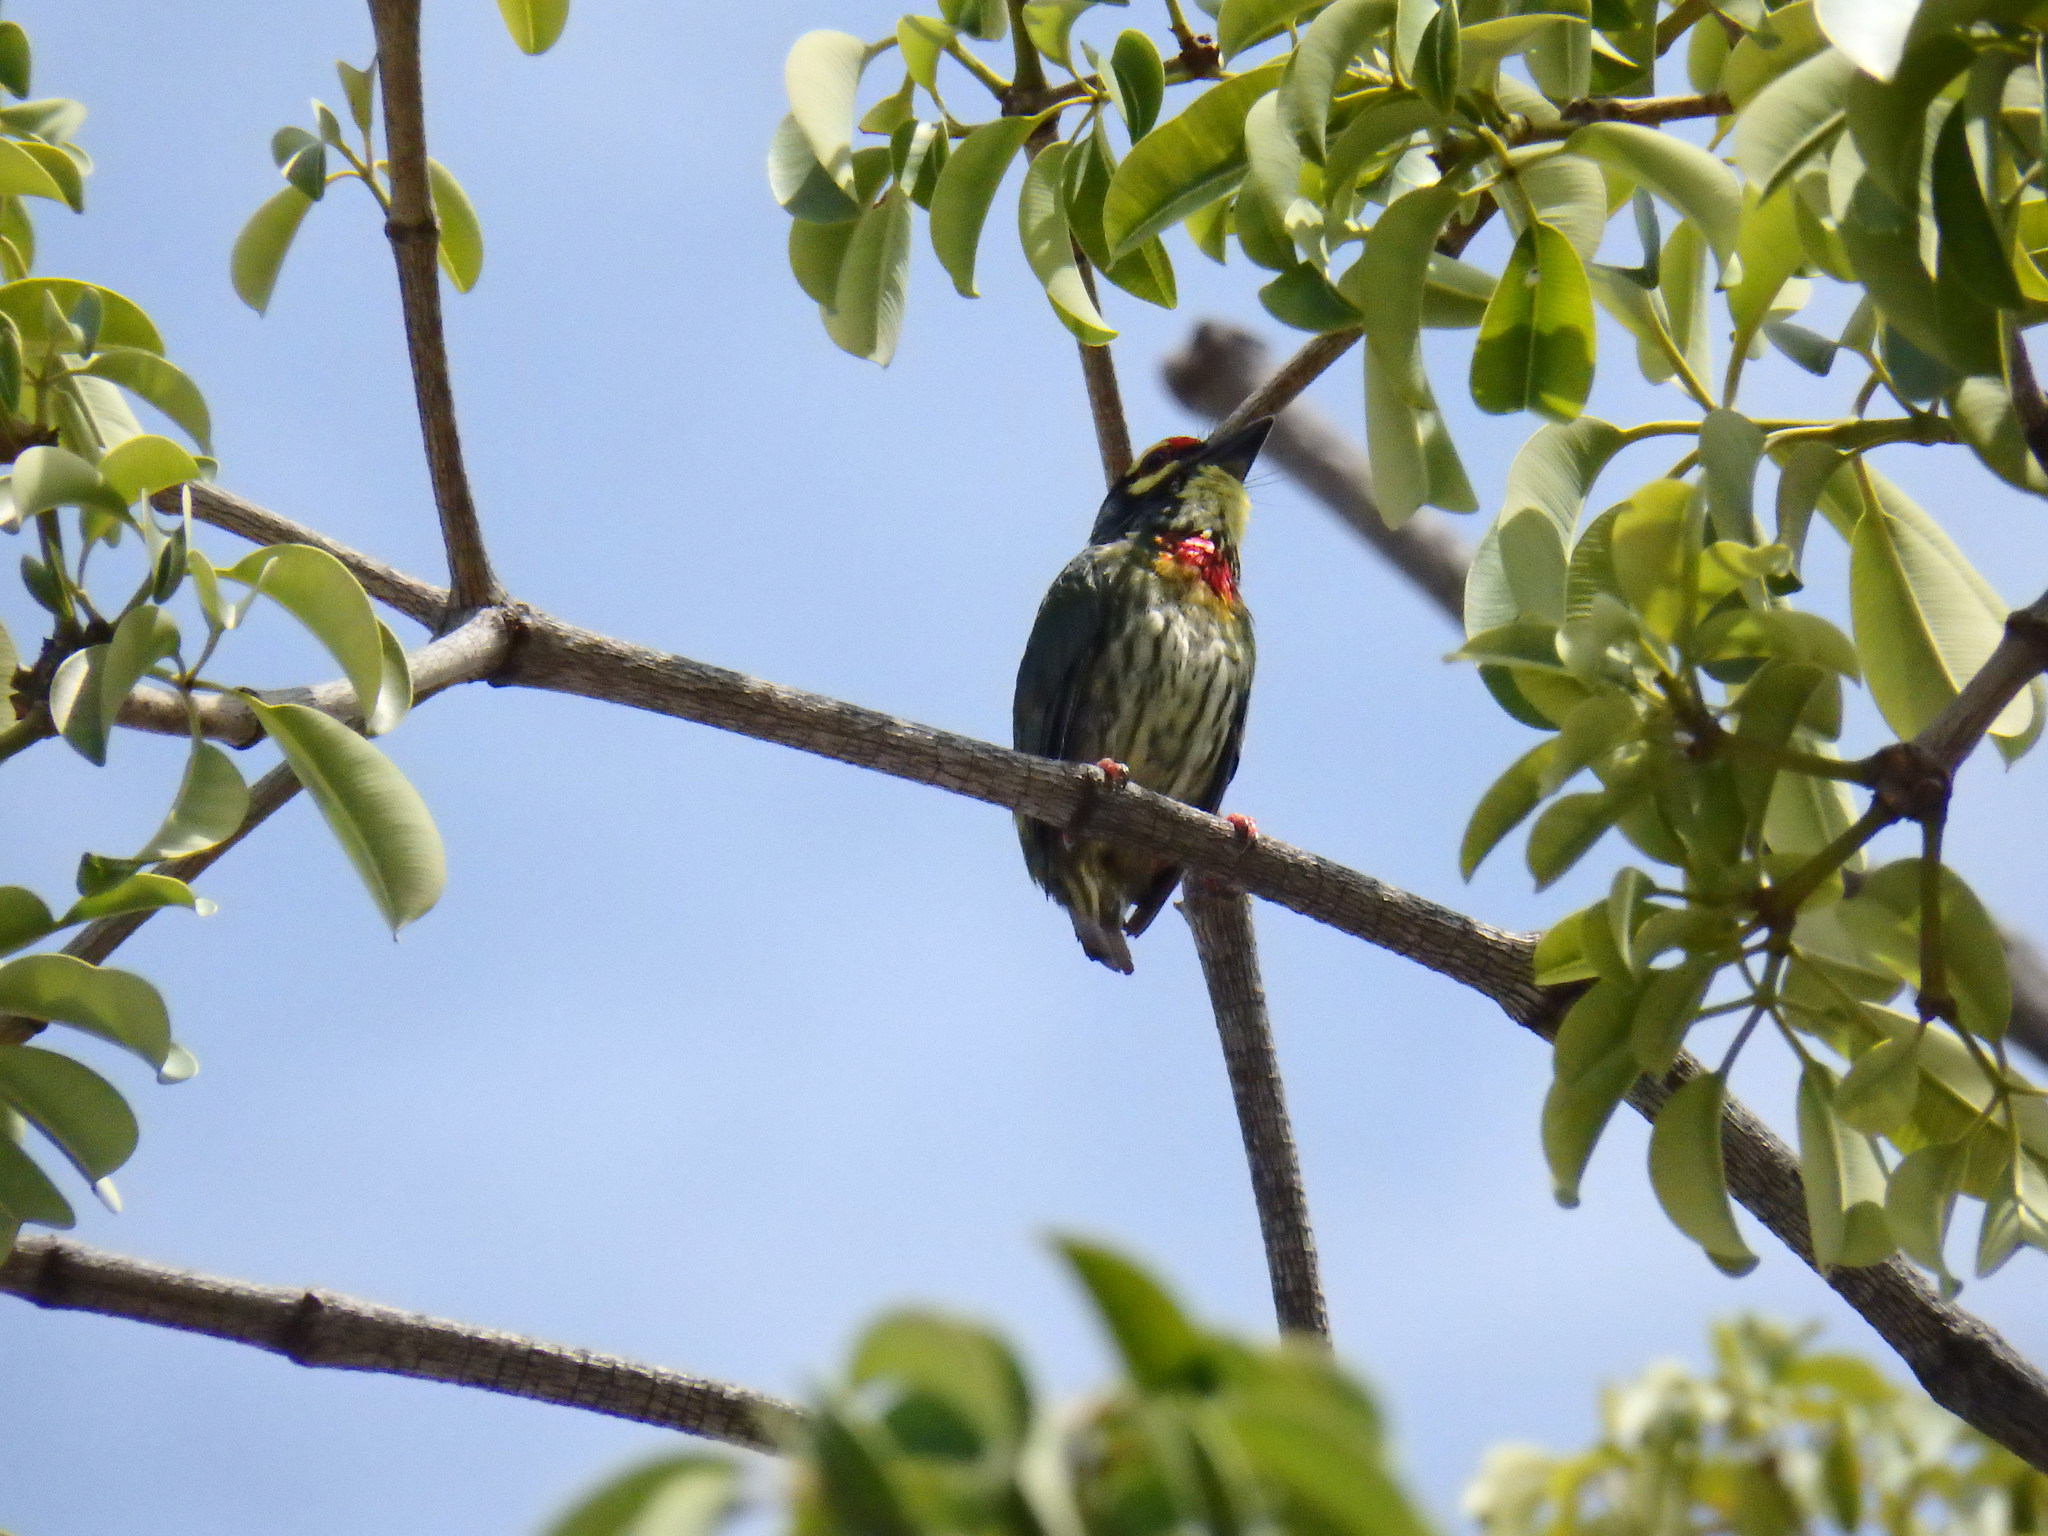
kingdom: Animalia
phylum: Chordata
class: Aves
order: Piciformes
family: Megalaimidae
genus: Psilopogon
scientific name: Psilopogon haemacephalus
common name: Coppersmith barbet
